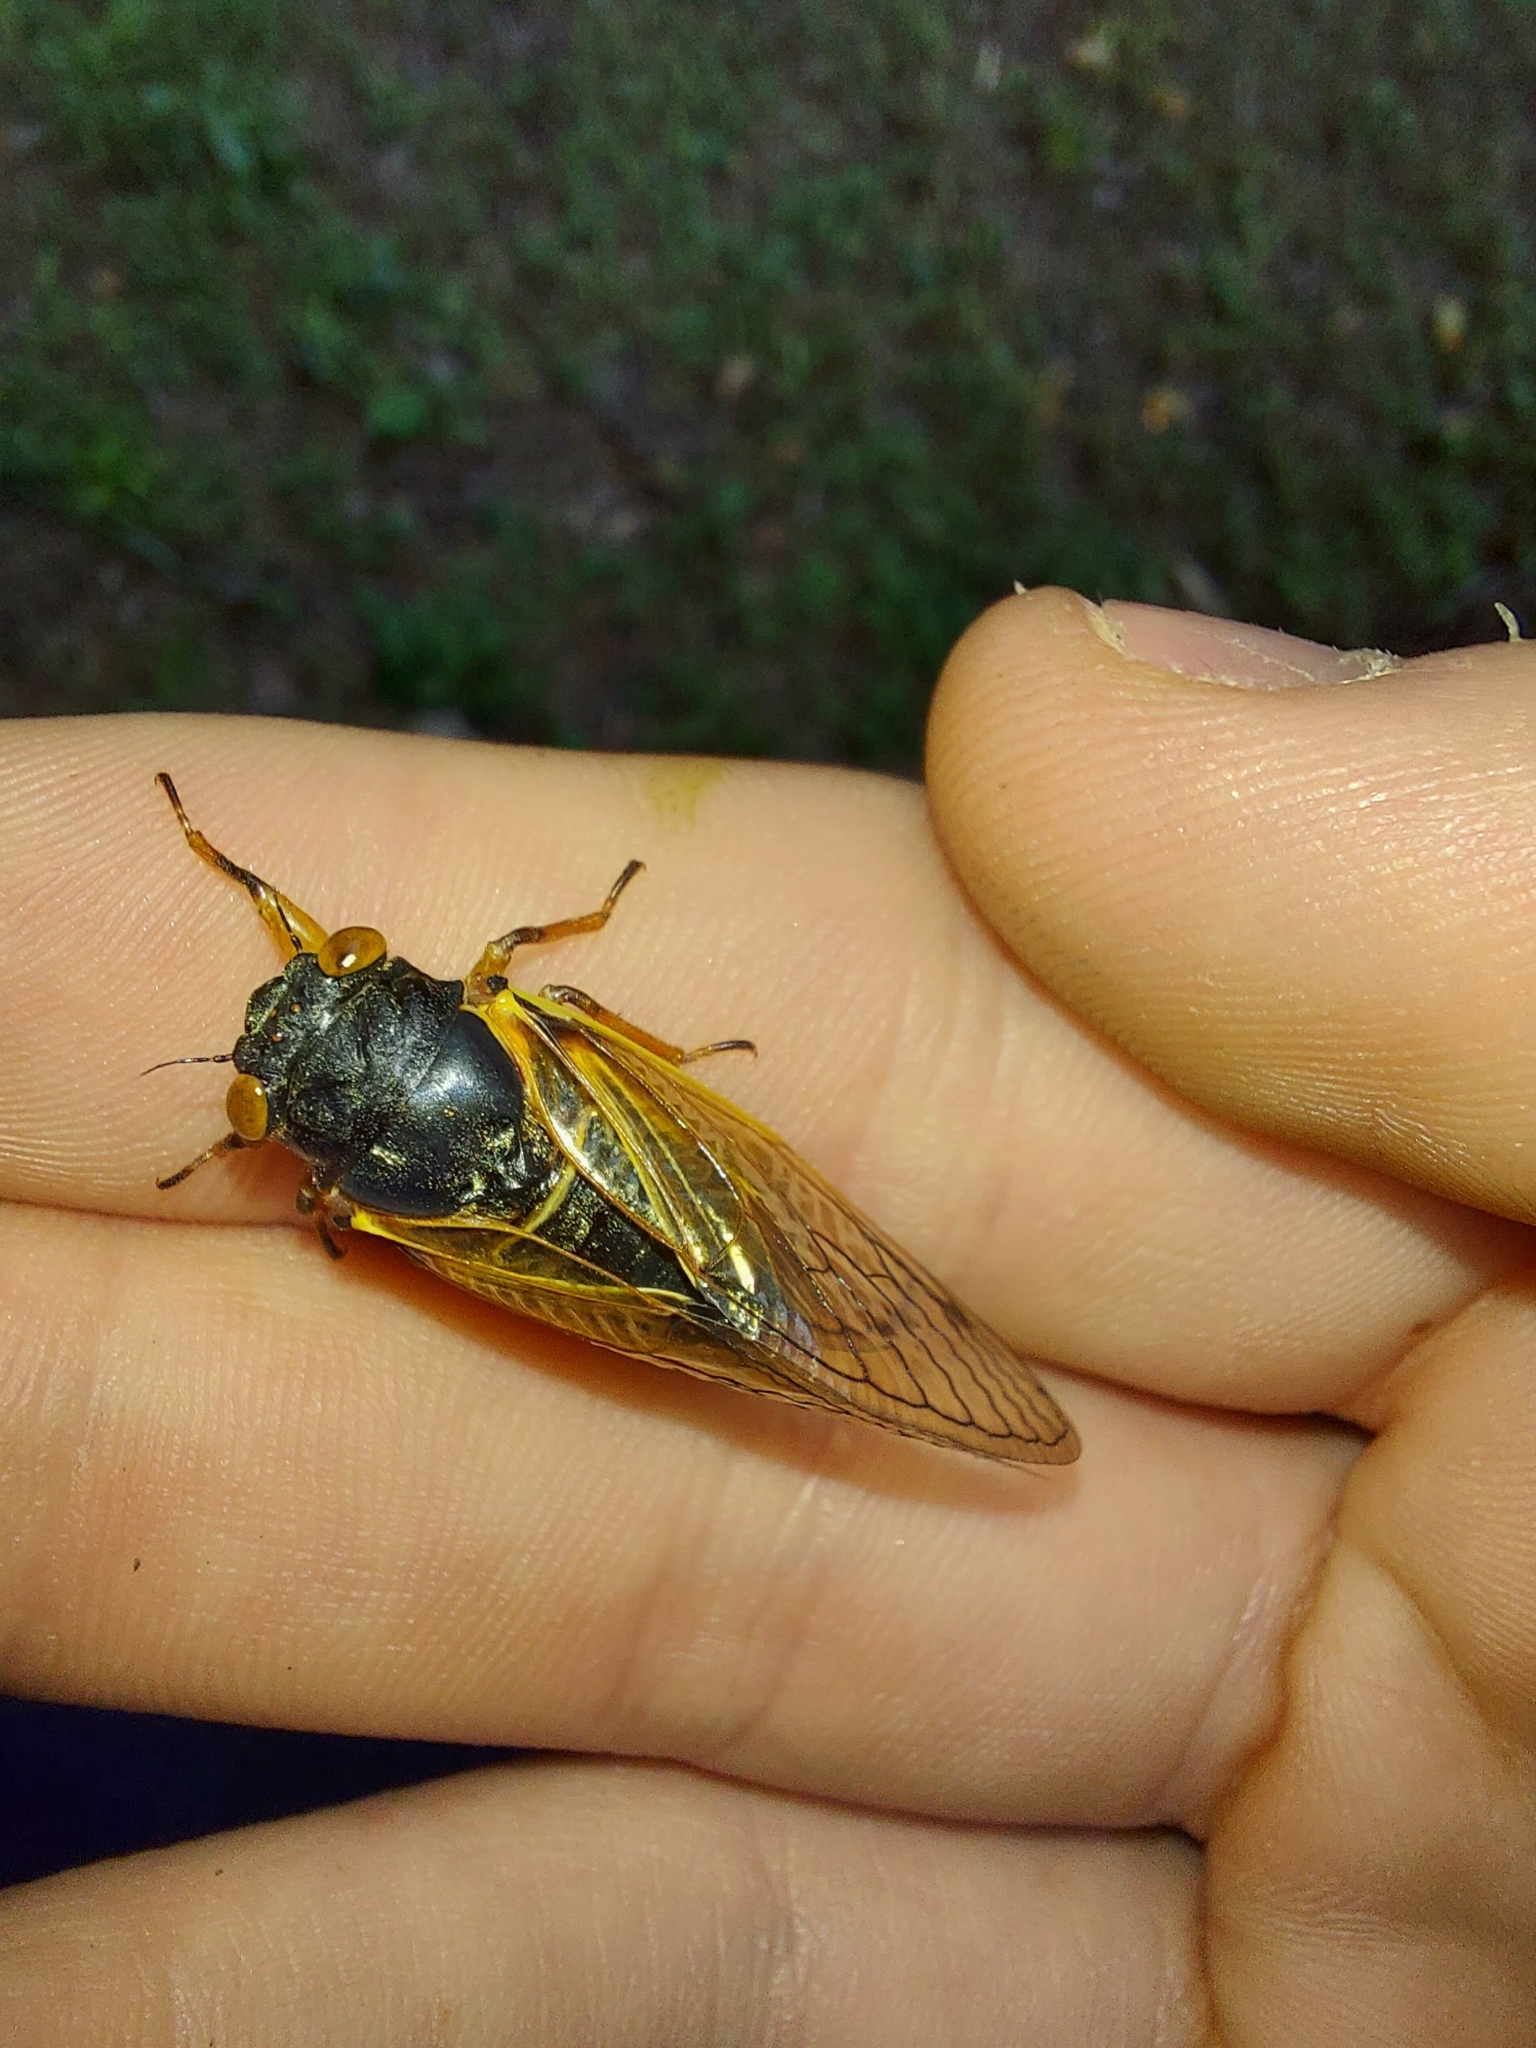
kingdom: Animalia
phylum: Arthropoda
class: Insecta
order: Hemiptera
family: Cicadidae
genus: Magicicada
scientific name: Magicicada cassini
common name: Cassin's 17-year cicada
